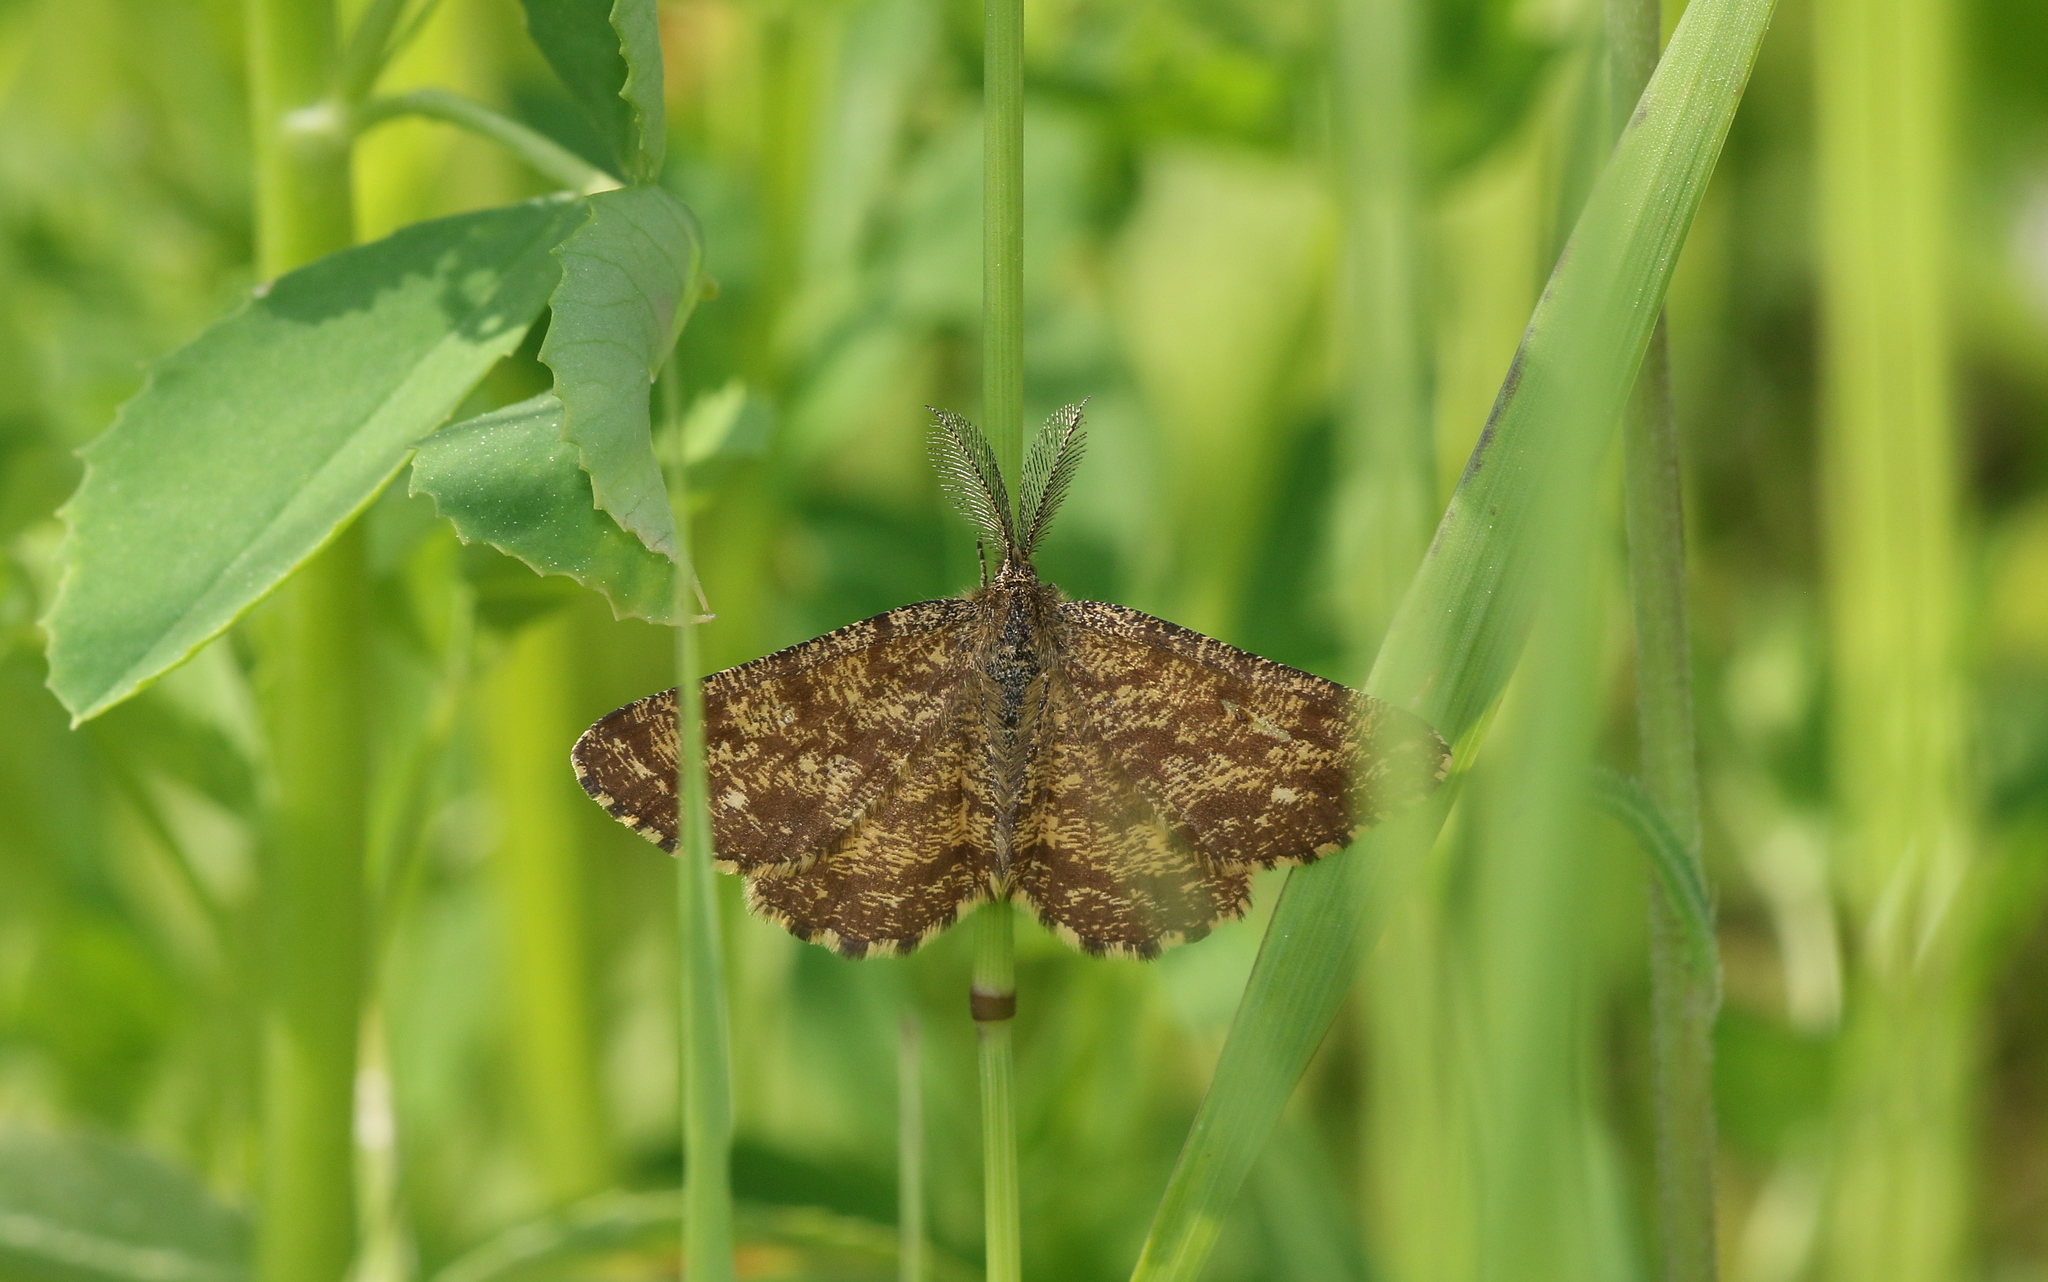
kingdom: Animalia
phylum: Arthropoda
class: Insecta
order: Lepidoptera
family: Geometridae
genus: Ematurga
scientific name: Ematurga atomaria
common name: Common heath
